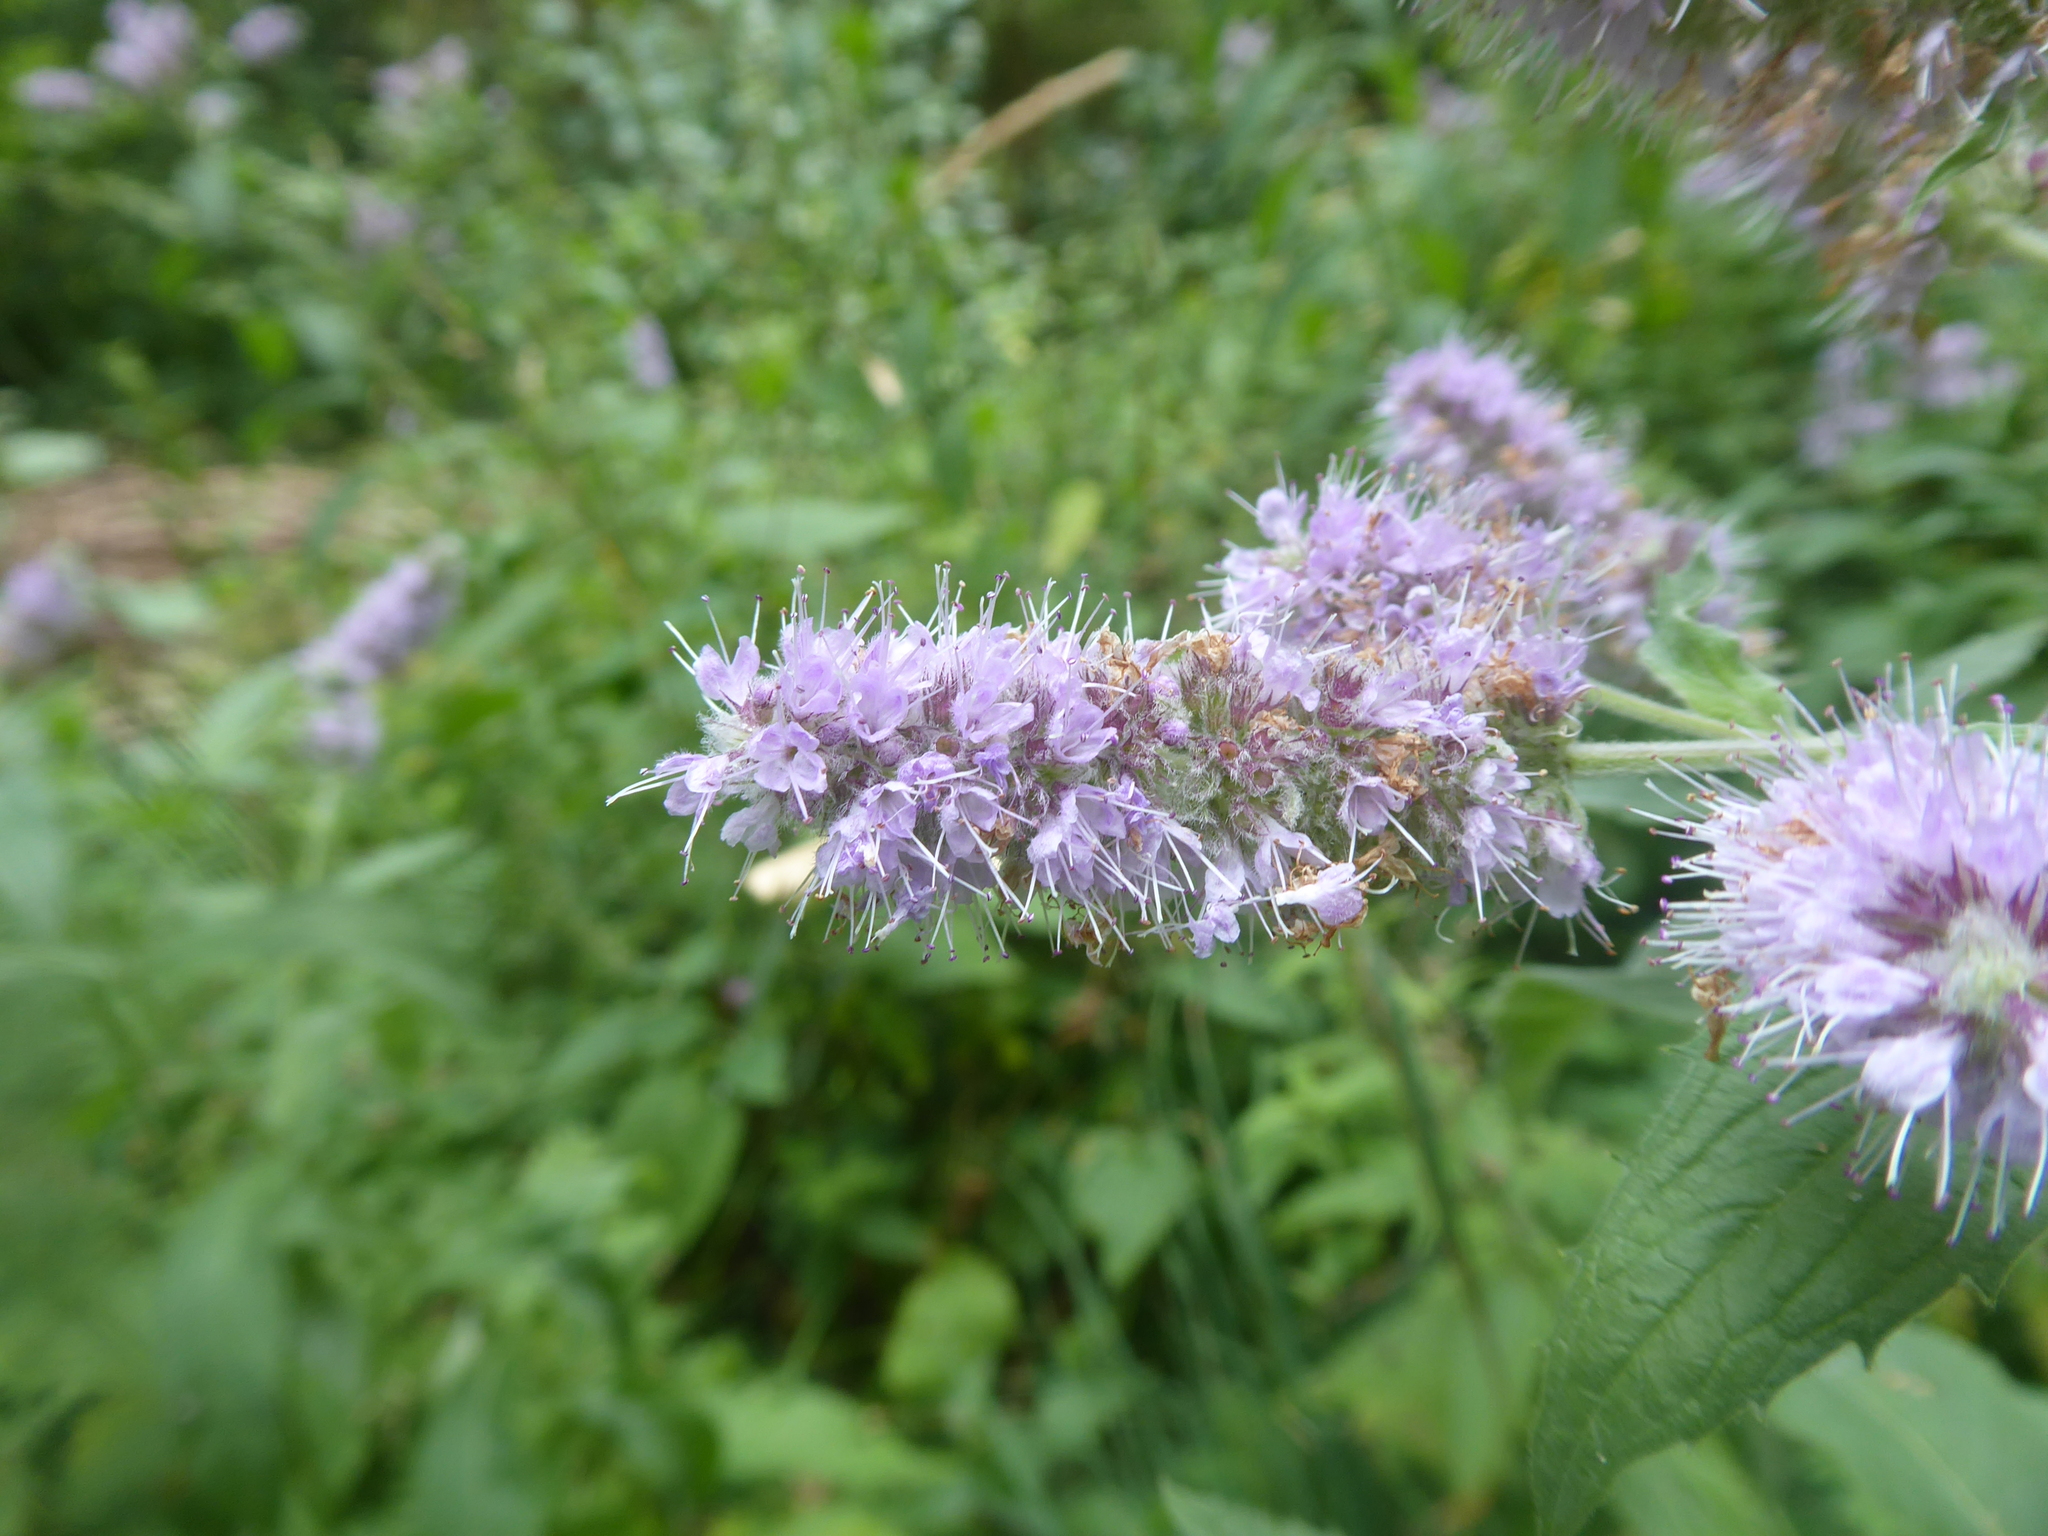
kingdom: Plantae
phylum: Tracheophyta
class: Magnoliopsida
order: Lamiales
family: Lamiaceae
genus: Mentha
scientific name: Mentha longifolia
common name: Horse mint
